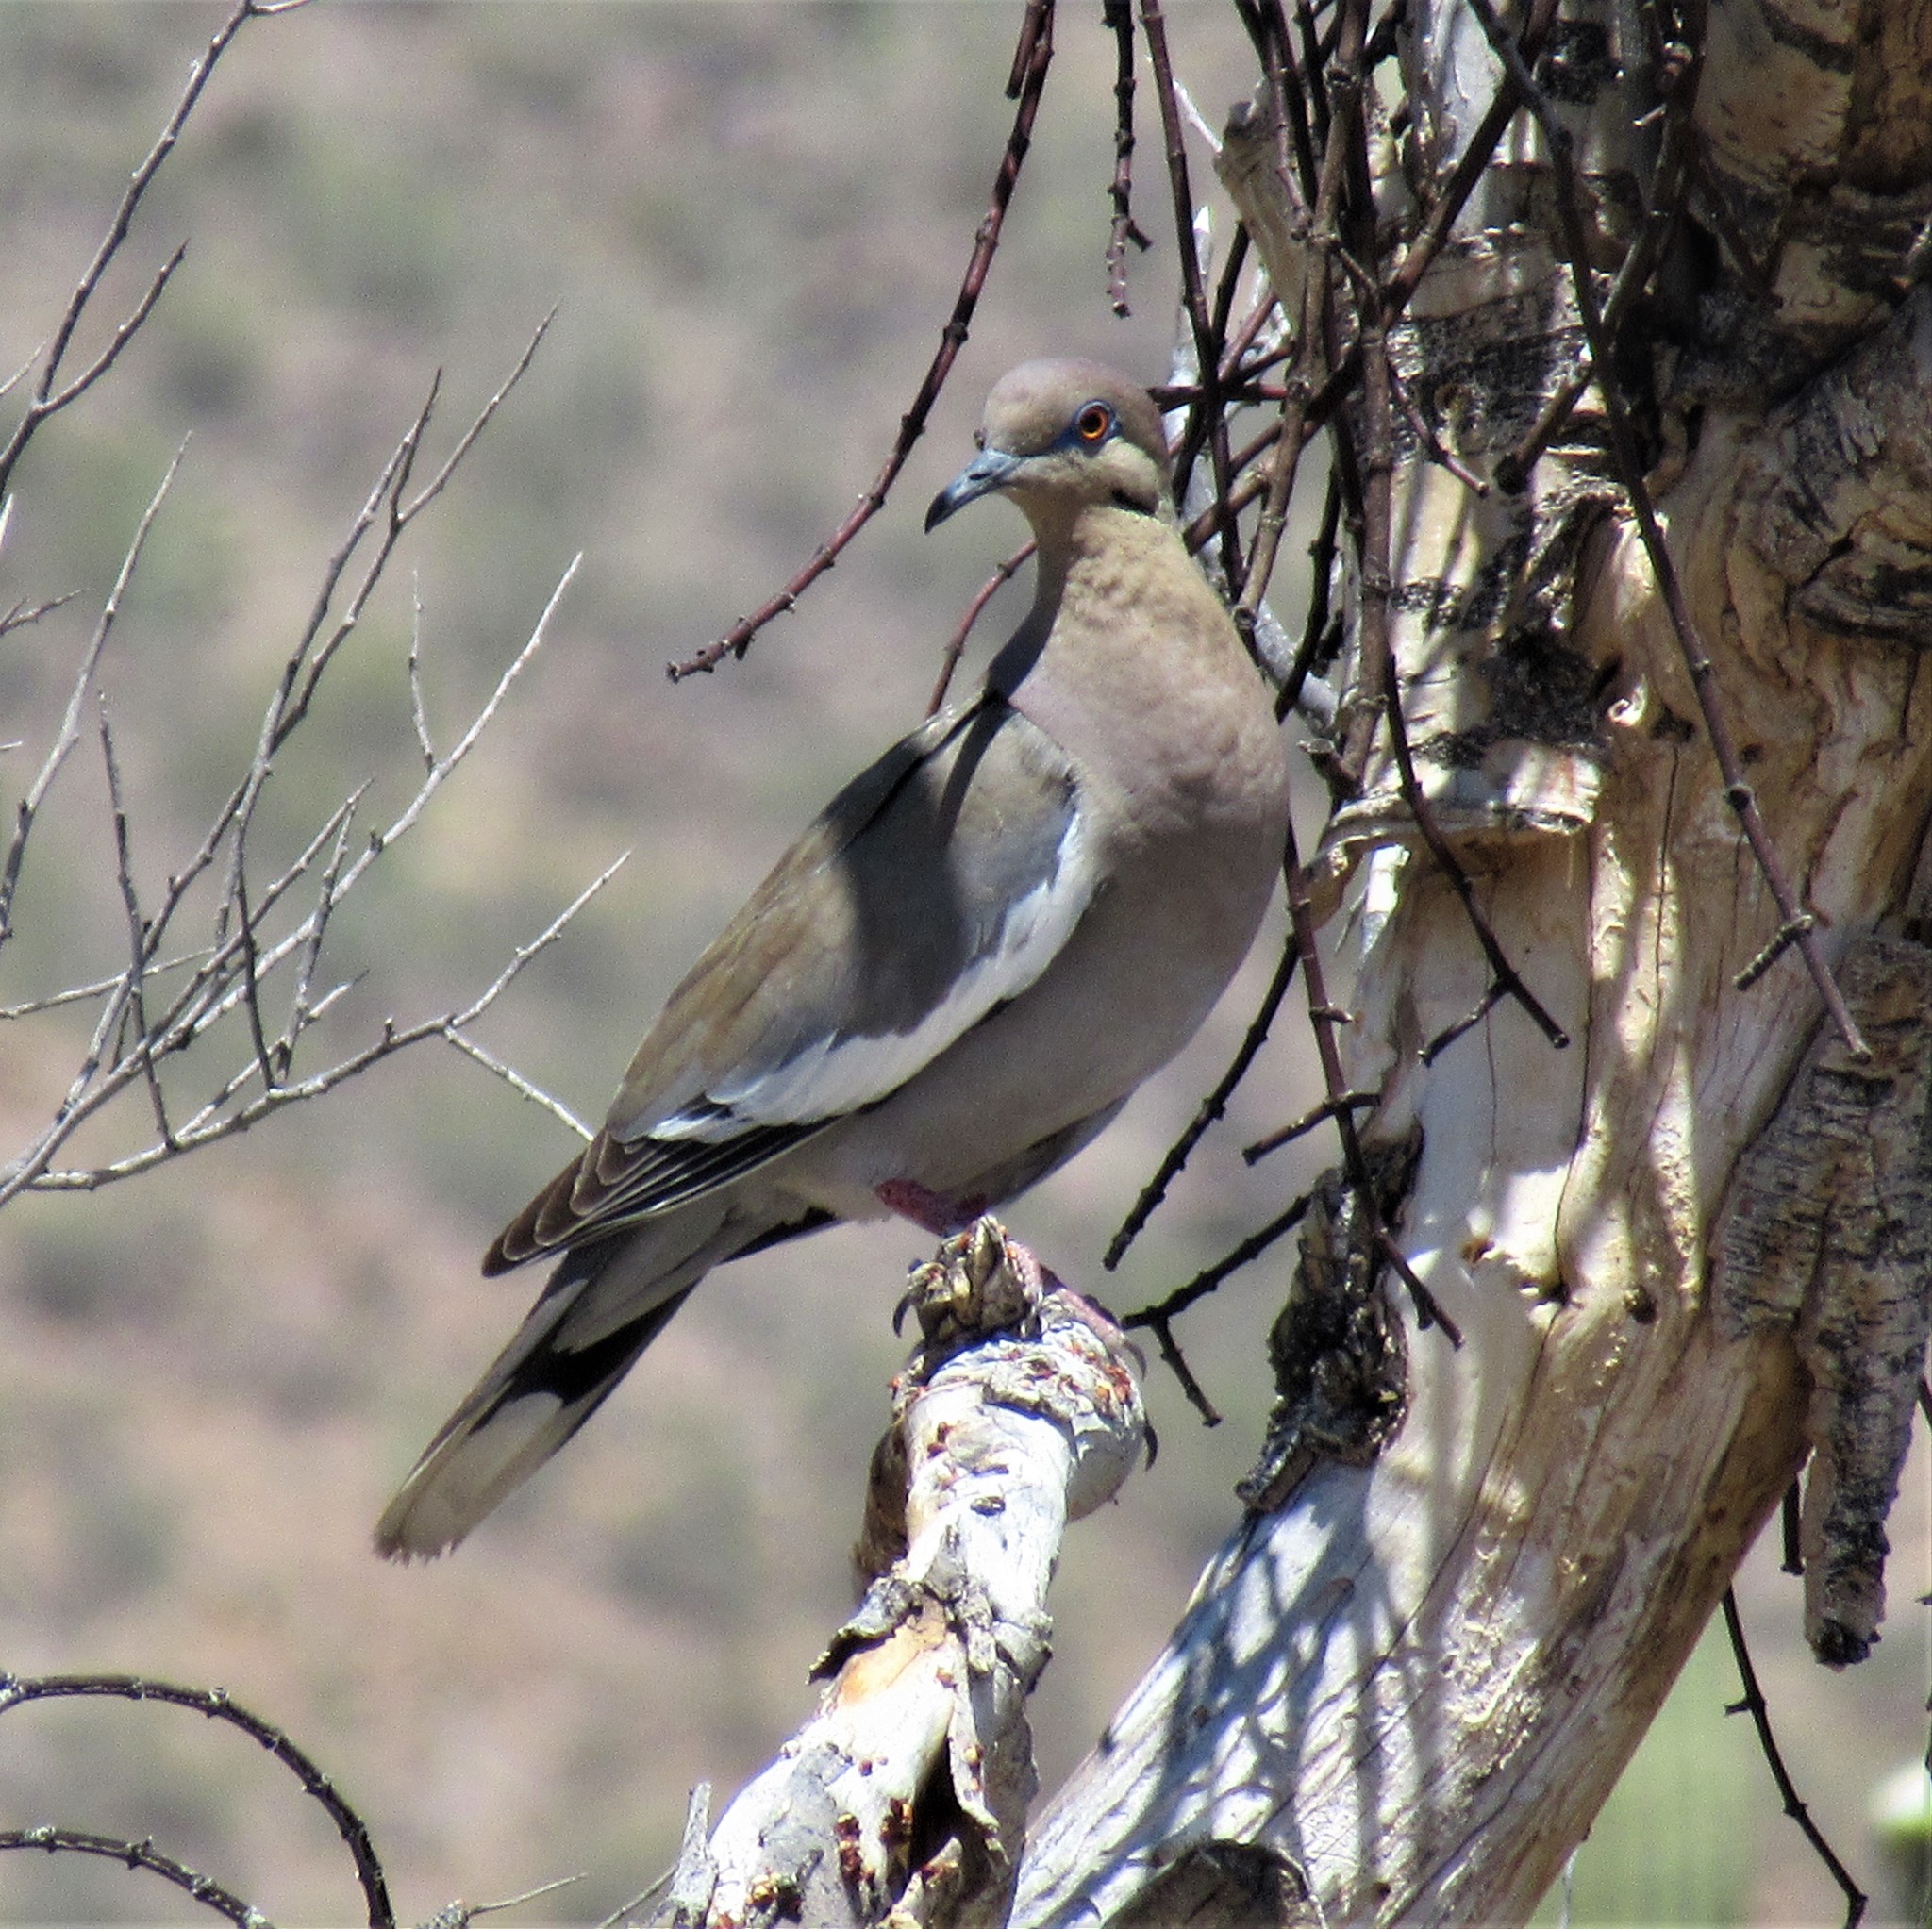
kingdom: Animalia
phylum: Chordata
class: Aves
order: Columbiformes
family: Columbidae
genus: Zenaida
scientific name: Zenaida asiatica
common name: White-winged dove
